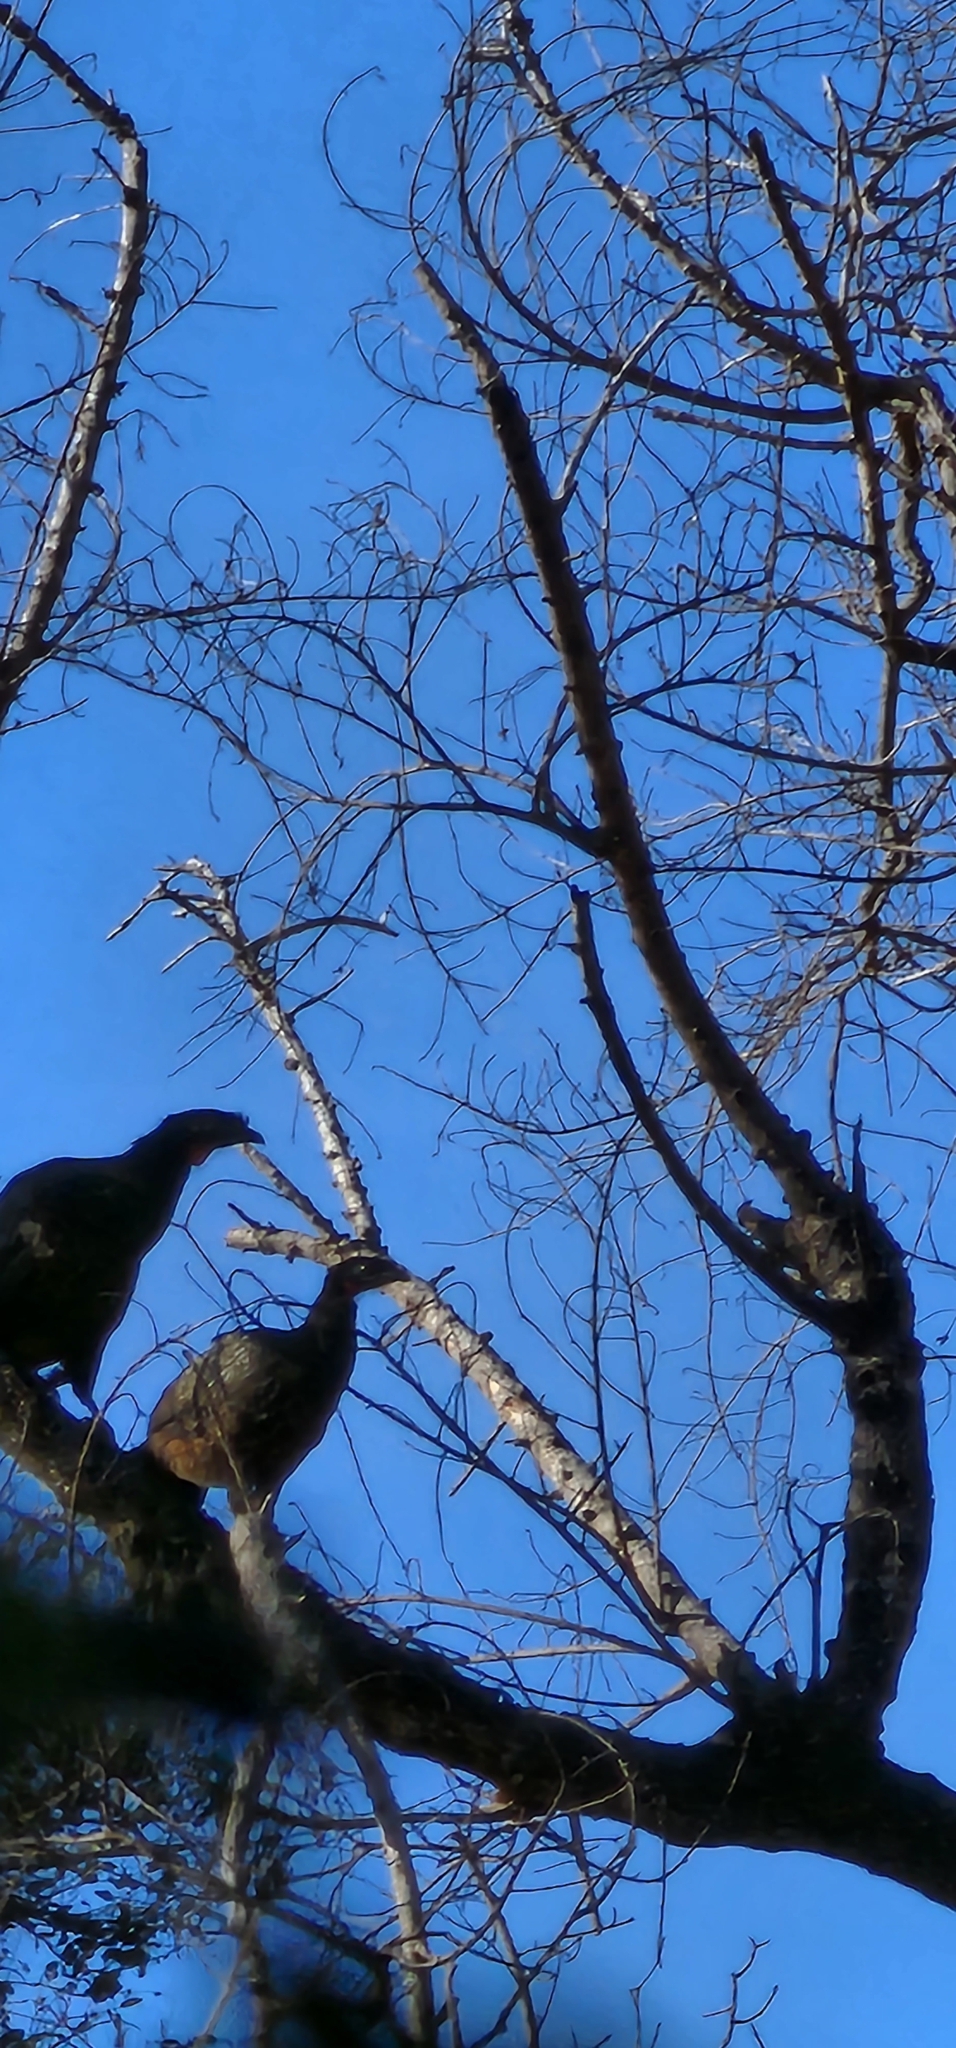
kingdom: Animalia
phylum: Chordata
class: Aves
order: Galliformes
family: Cracidae
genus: Penelope
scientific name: Penelope bridgesi
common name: Yungas guan
